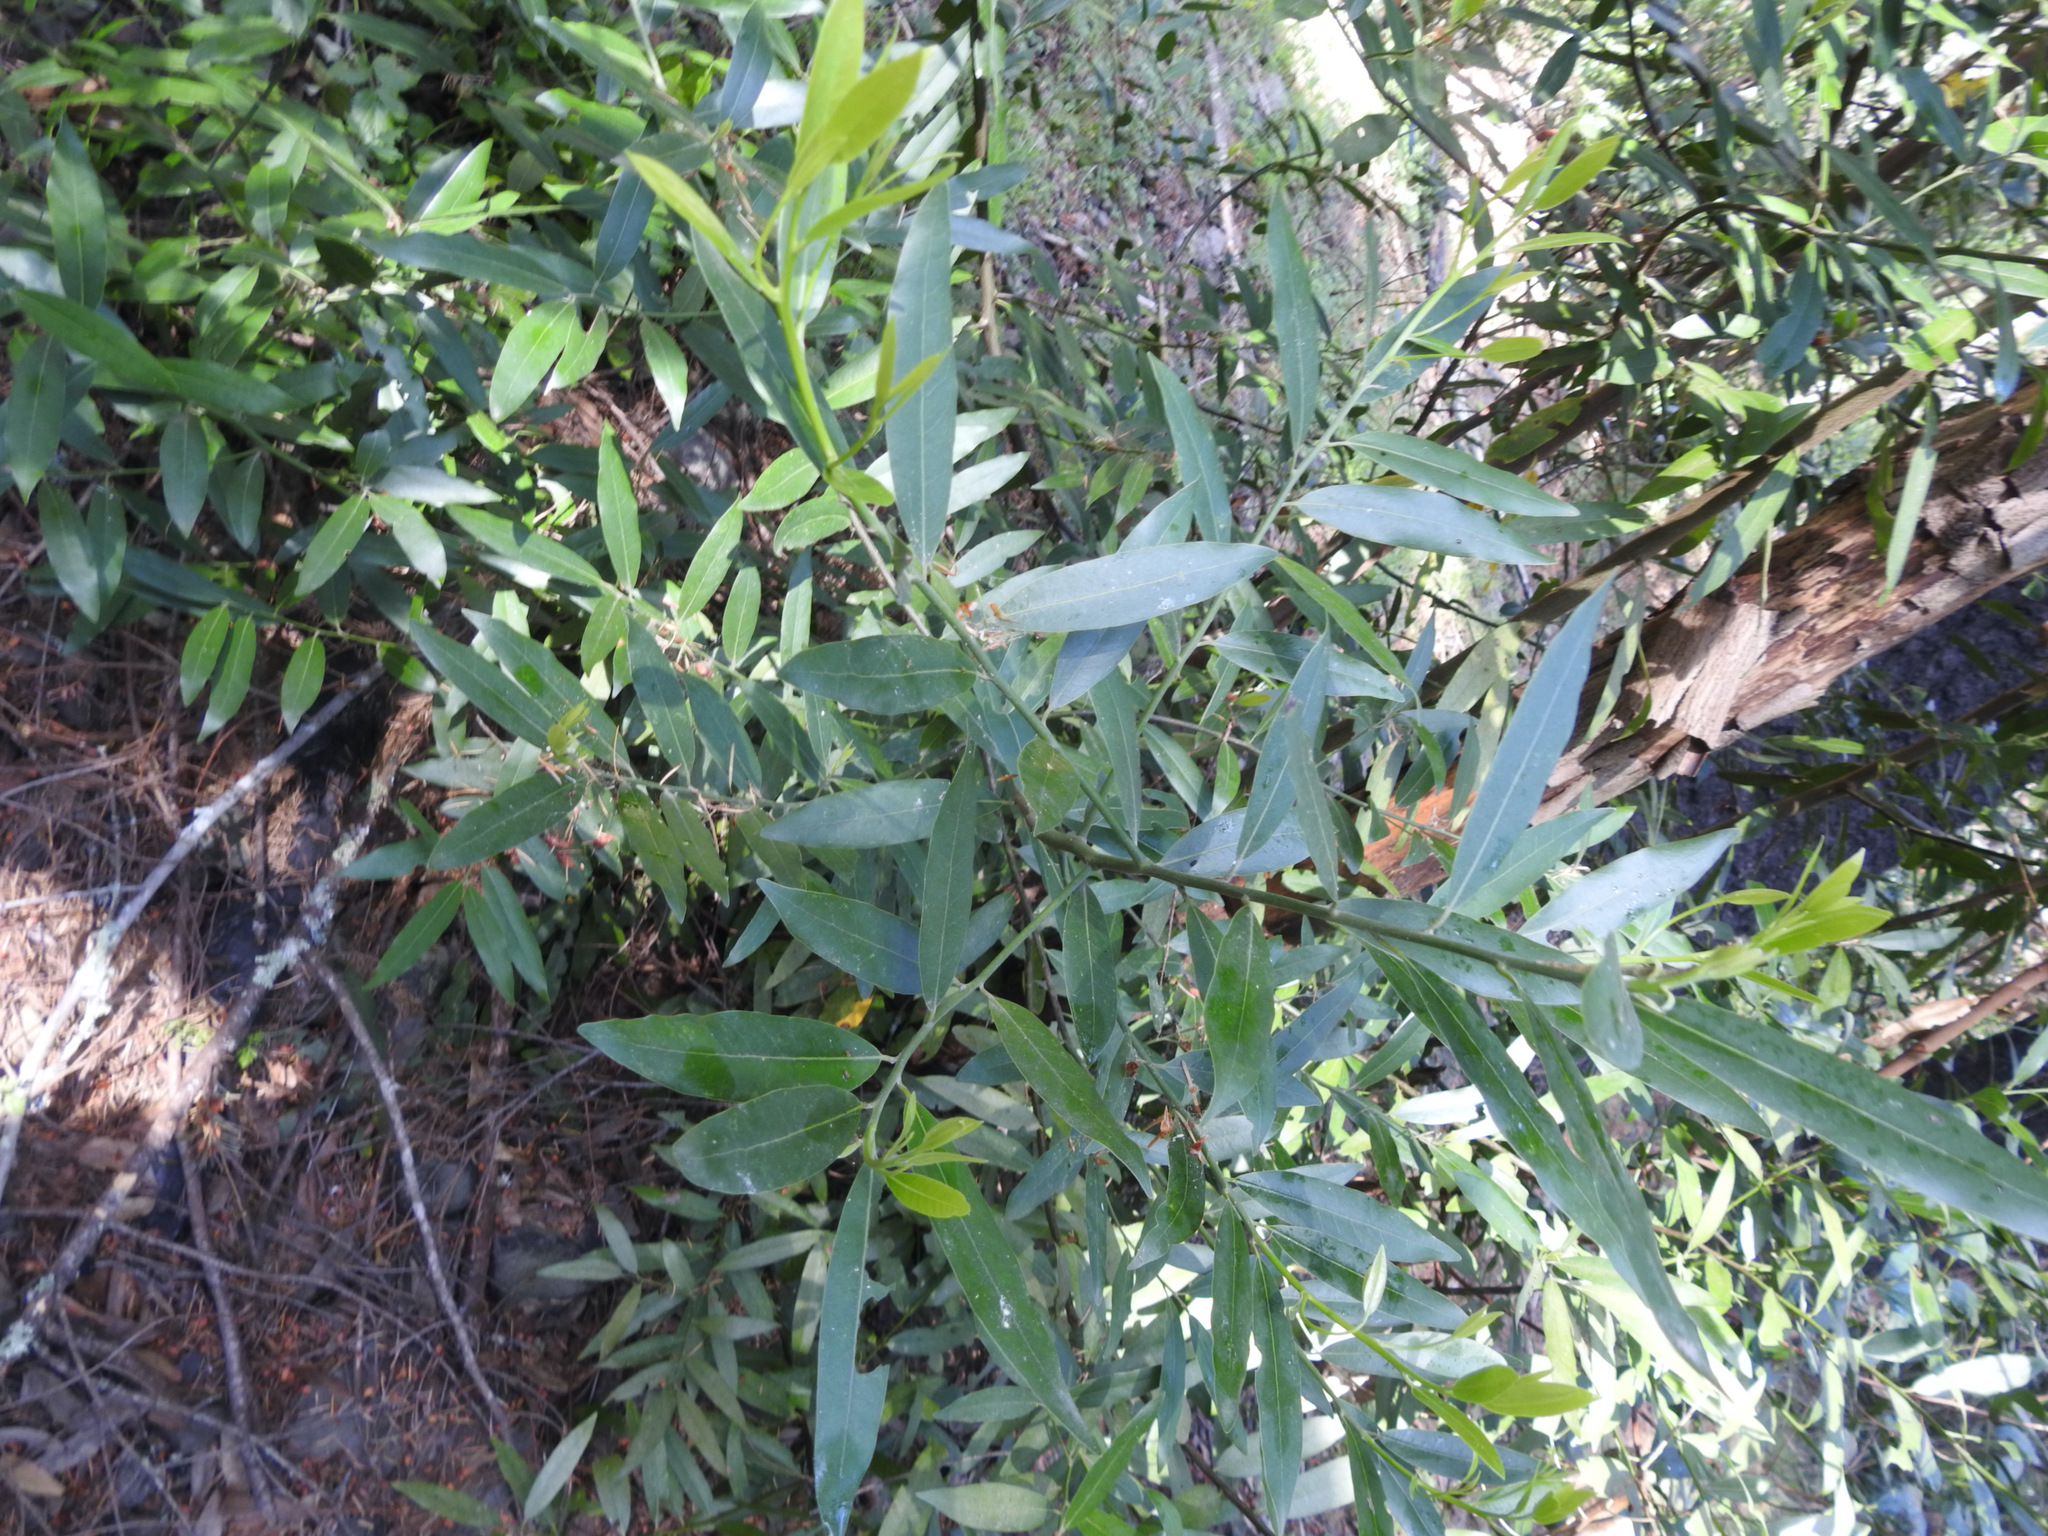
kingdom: Plantae
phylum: Tracheophyta
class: Magnoliopsida
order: Laurales
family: Lauraceae
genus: Umbellularia
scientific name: Umbellularia californica
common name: California bay
